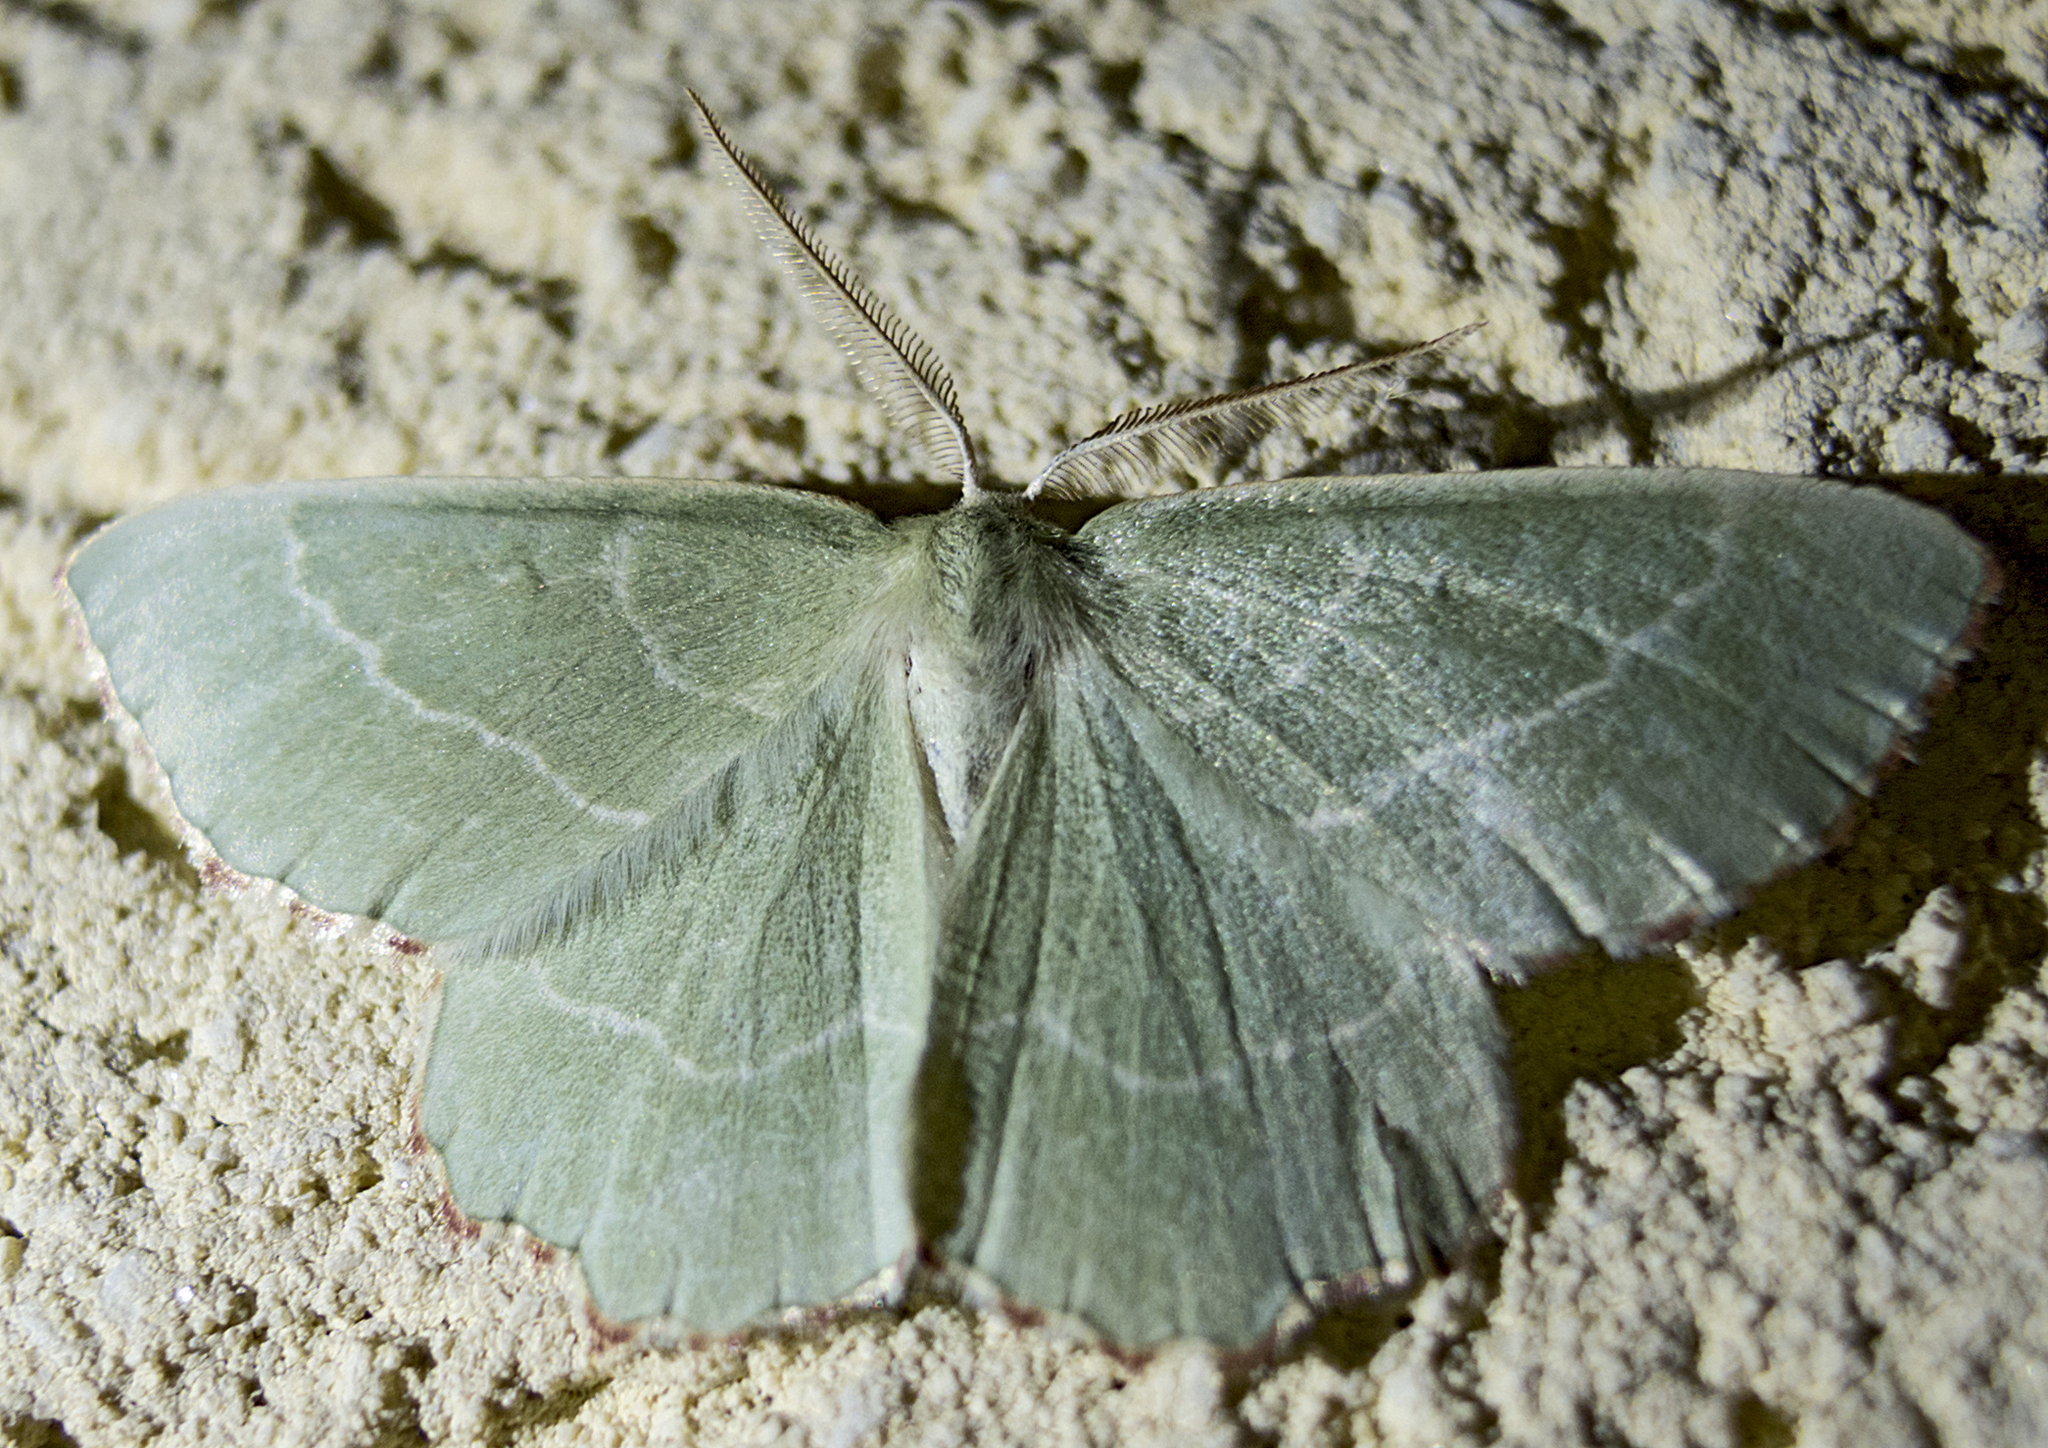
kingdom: Animalia
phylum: Arthropoda
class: Insecta
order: Lepidoptera
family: Geometridae
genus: Thalera
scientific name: Thalera fimbrialis
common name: Sussex emerald
